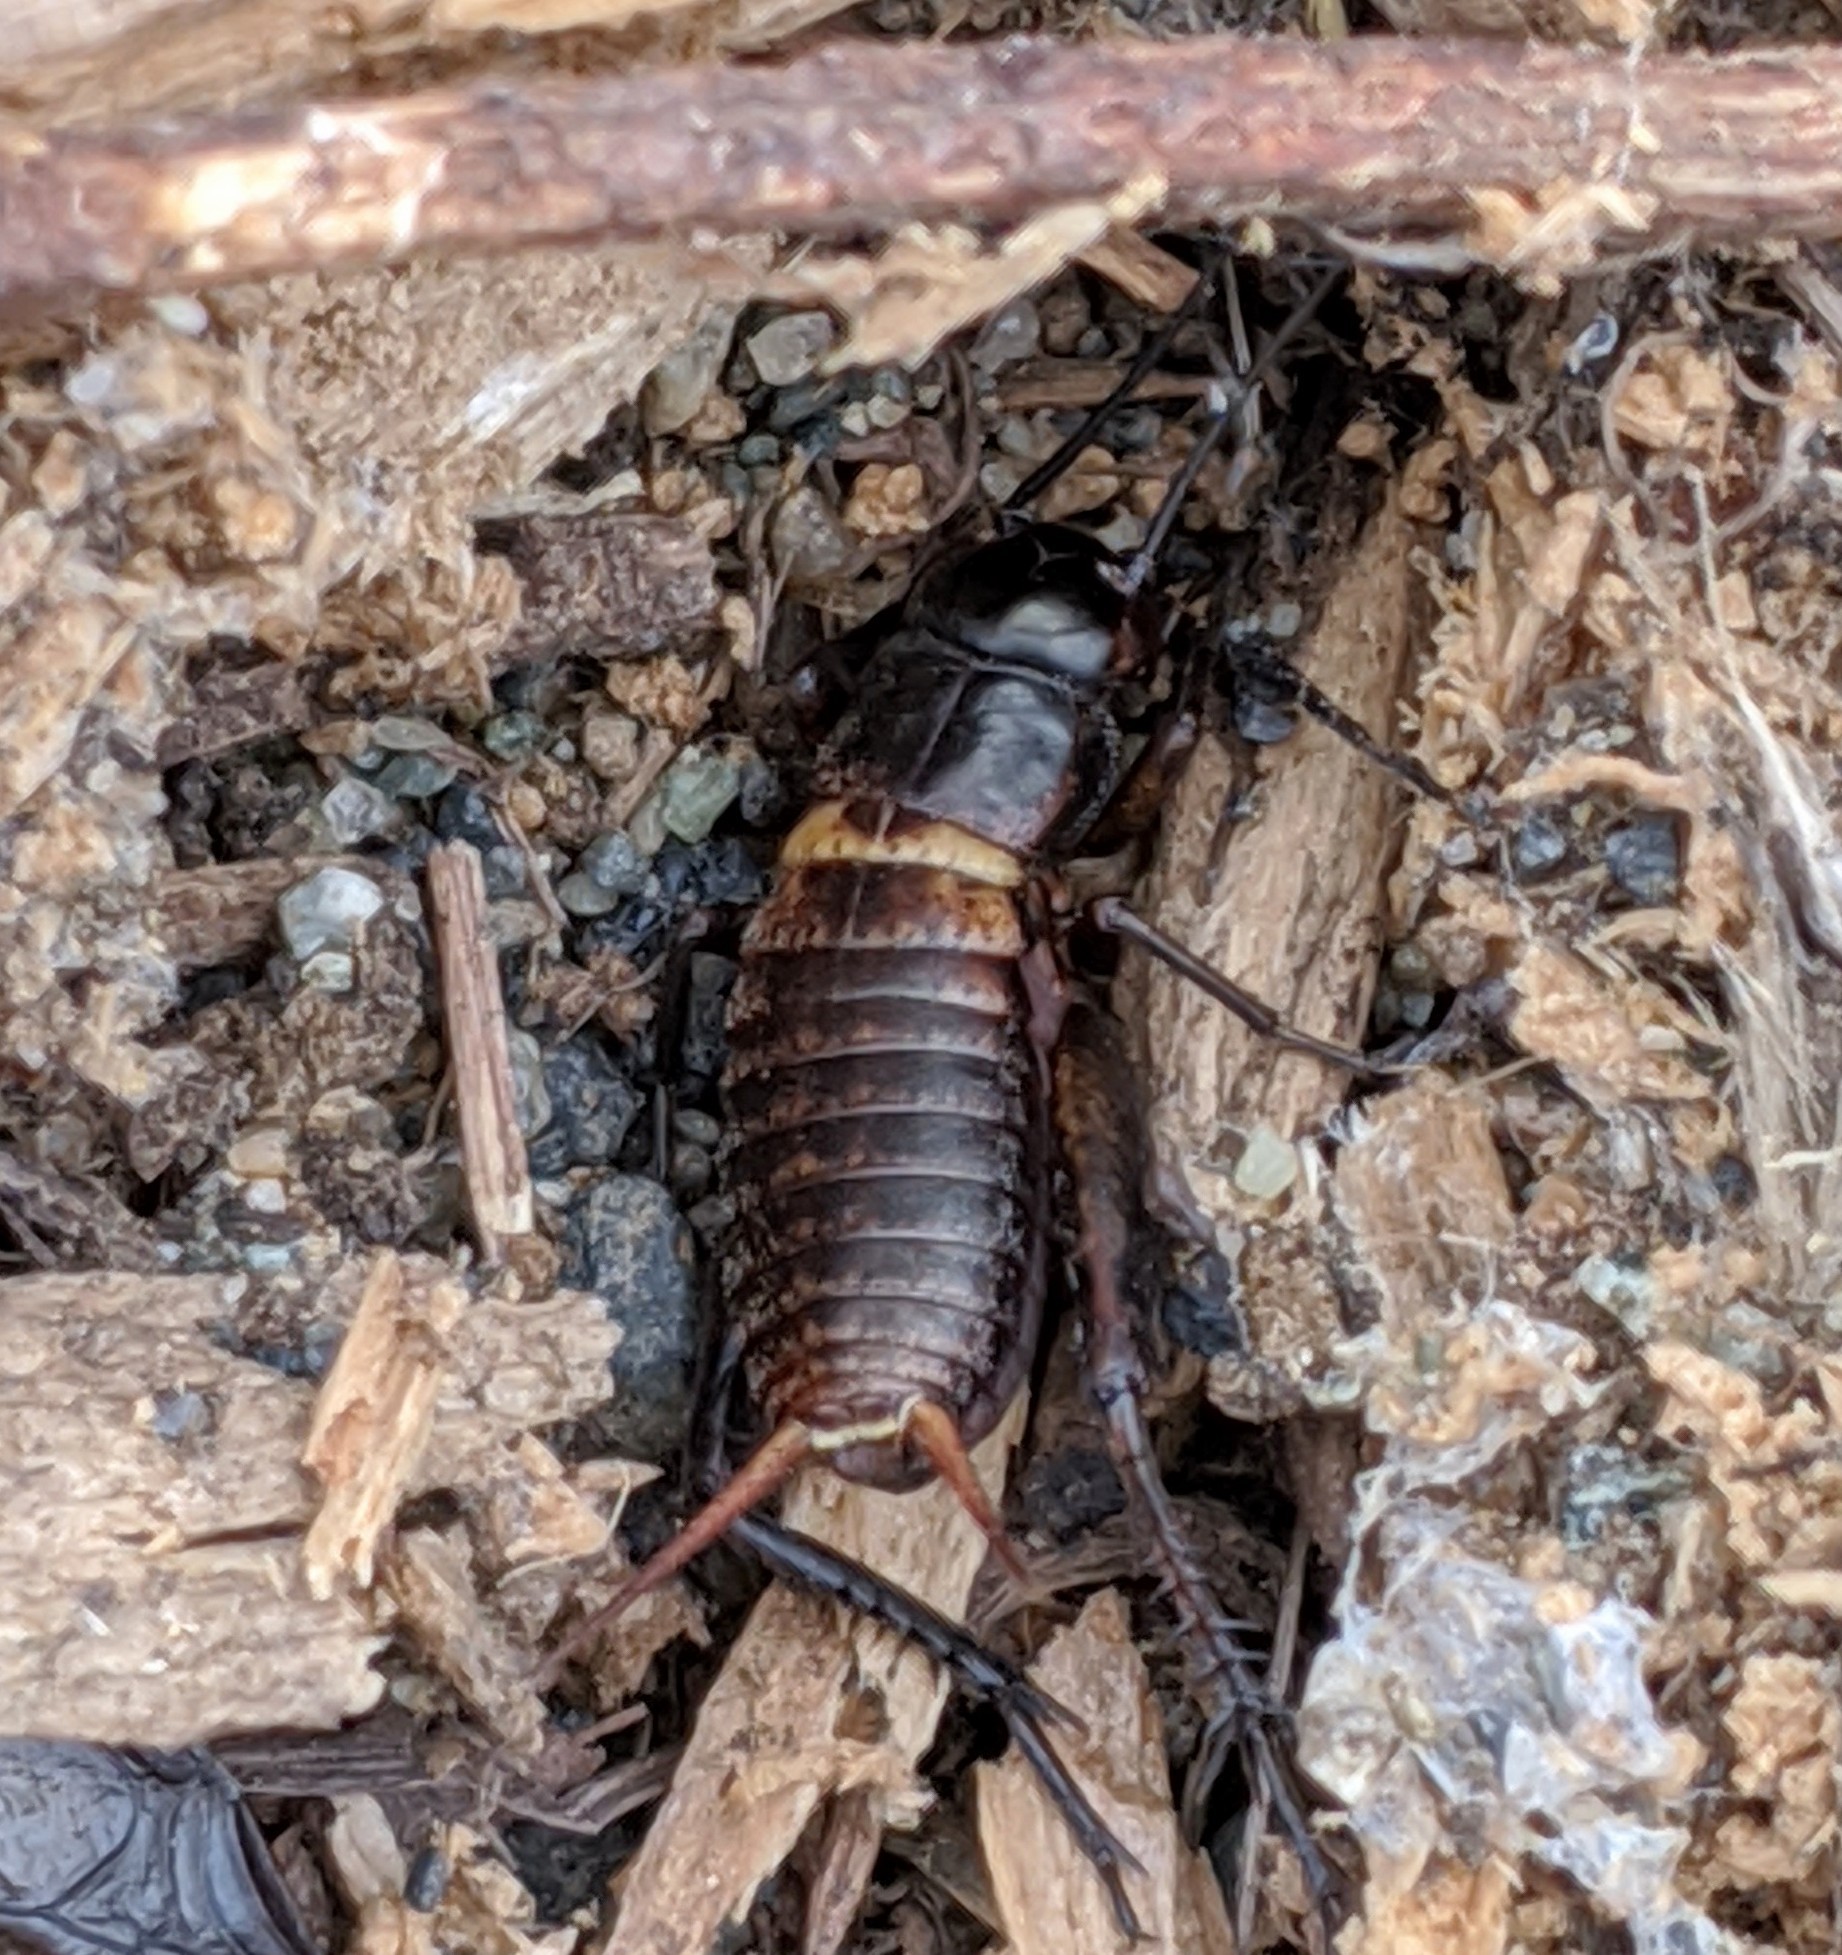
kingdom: Animalia
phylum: Arthropoda
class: Insecta
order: Orthoptera
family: Gryllidae
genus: Gryllus
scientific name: Gryllus pennsylvanicus
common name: Fall field cricket
